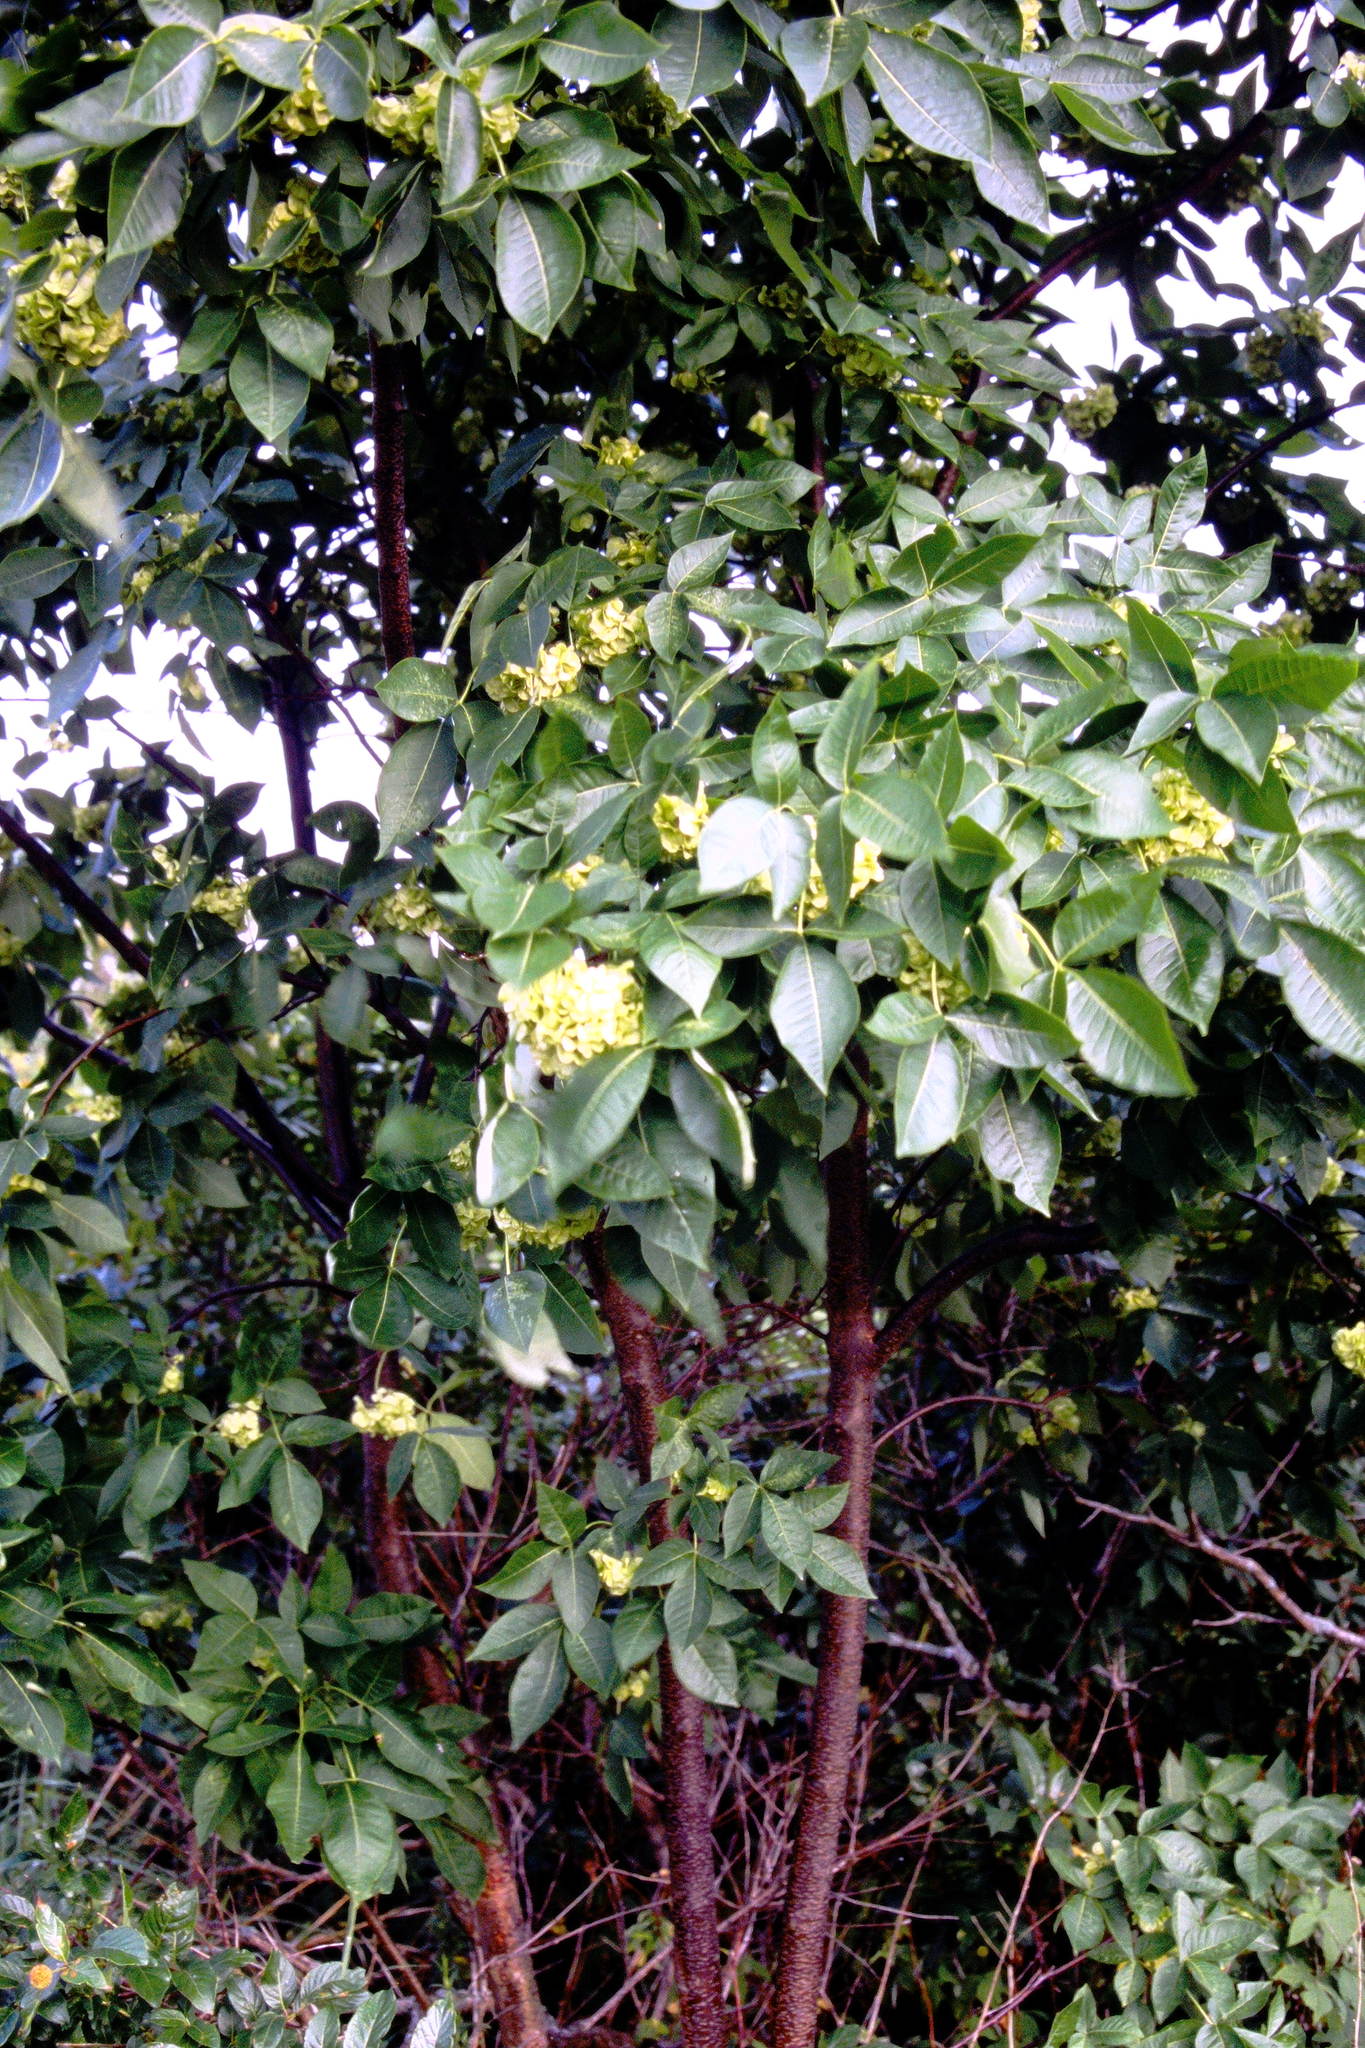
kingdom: Plantae
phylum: Tracheophyta
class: Magnoliopsida
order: Sapindales
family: Rutaceae
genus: Ptelea
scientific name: Ptelea trifoliata
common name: Common hop-tree
